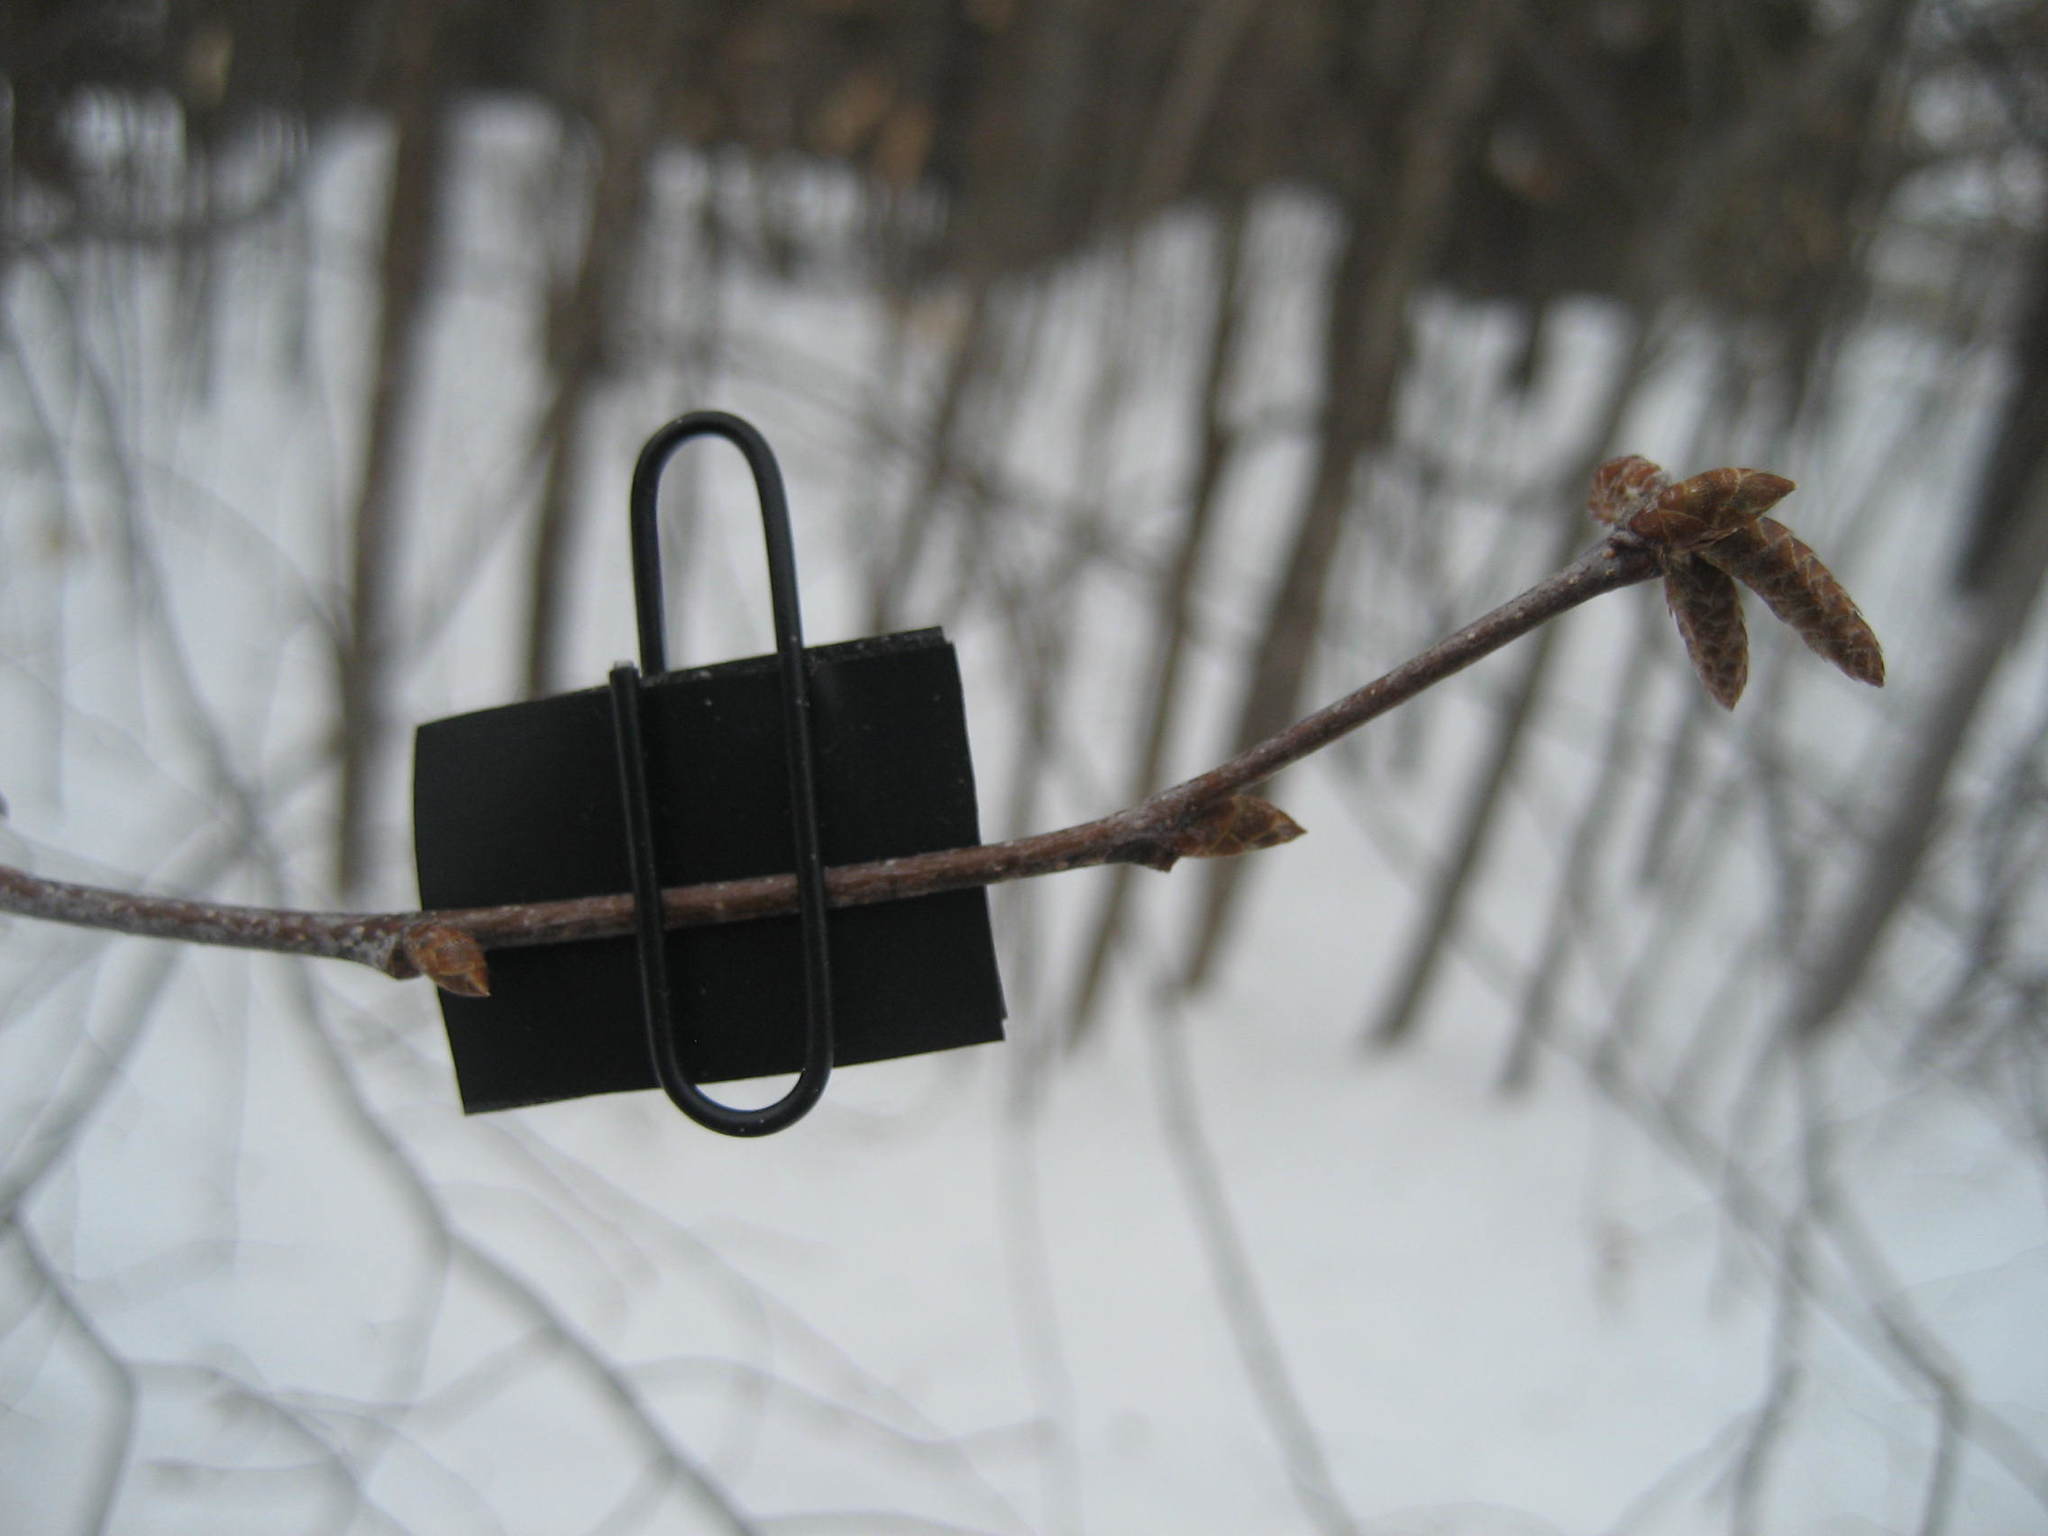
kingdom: Plantae
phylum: Tracheophyta
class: Magnoliopsida
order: Fagales
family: Betulaceae
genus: Ostrya
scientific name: Ostrya virginiana
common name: Ironwood
